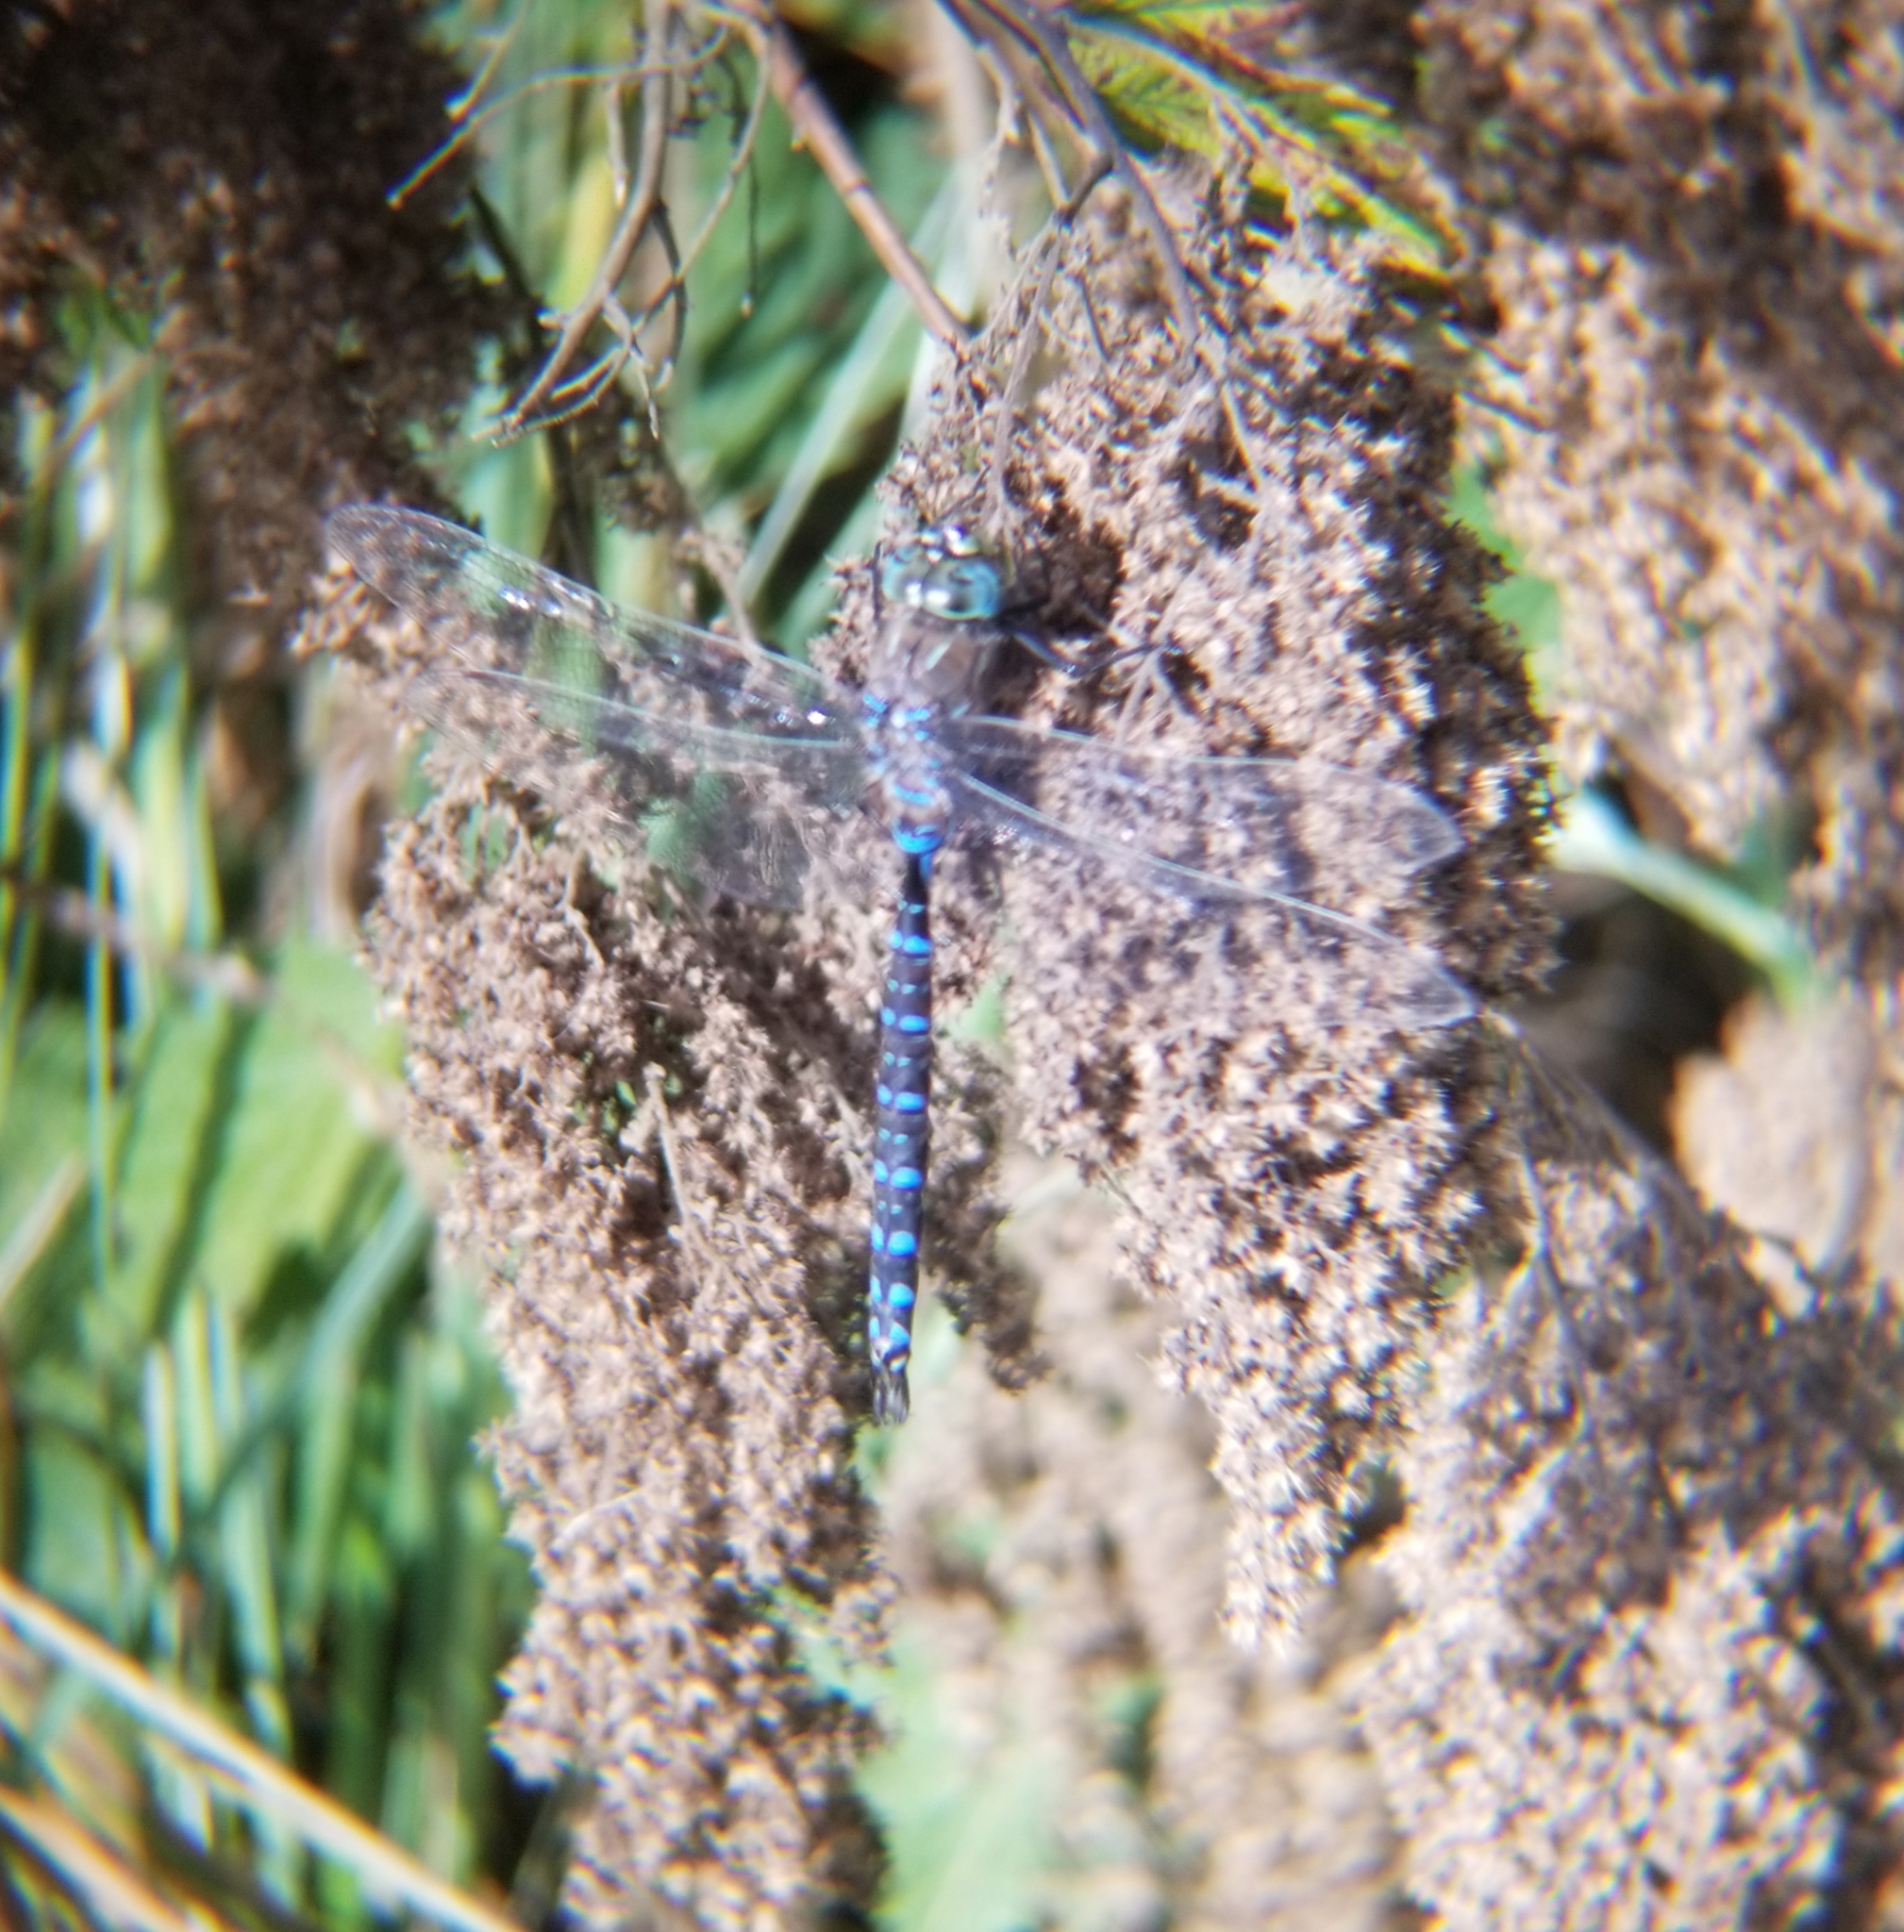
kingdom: Animalia
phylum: Arthropoda
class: Insecta
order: Odonata
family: Aeshnidae
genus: Aeshna
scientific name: Aeshna interrupta
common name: Variable darner
